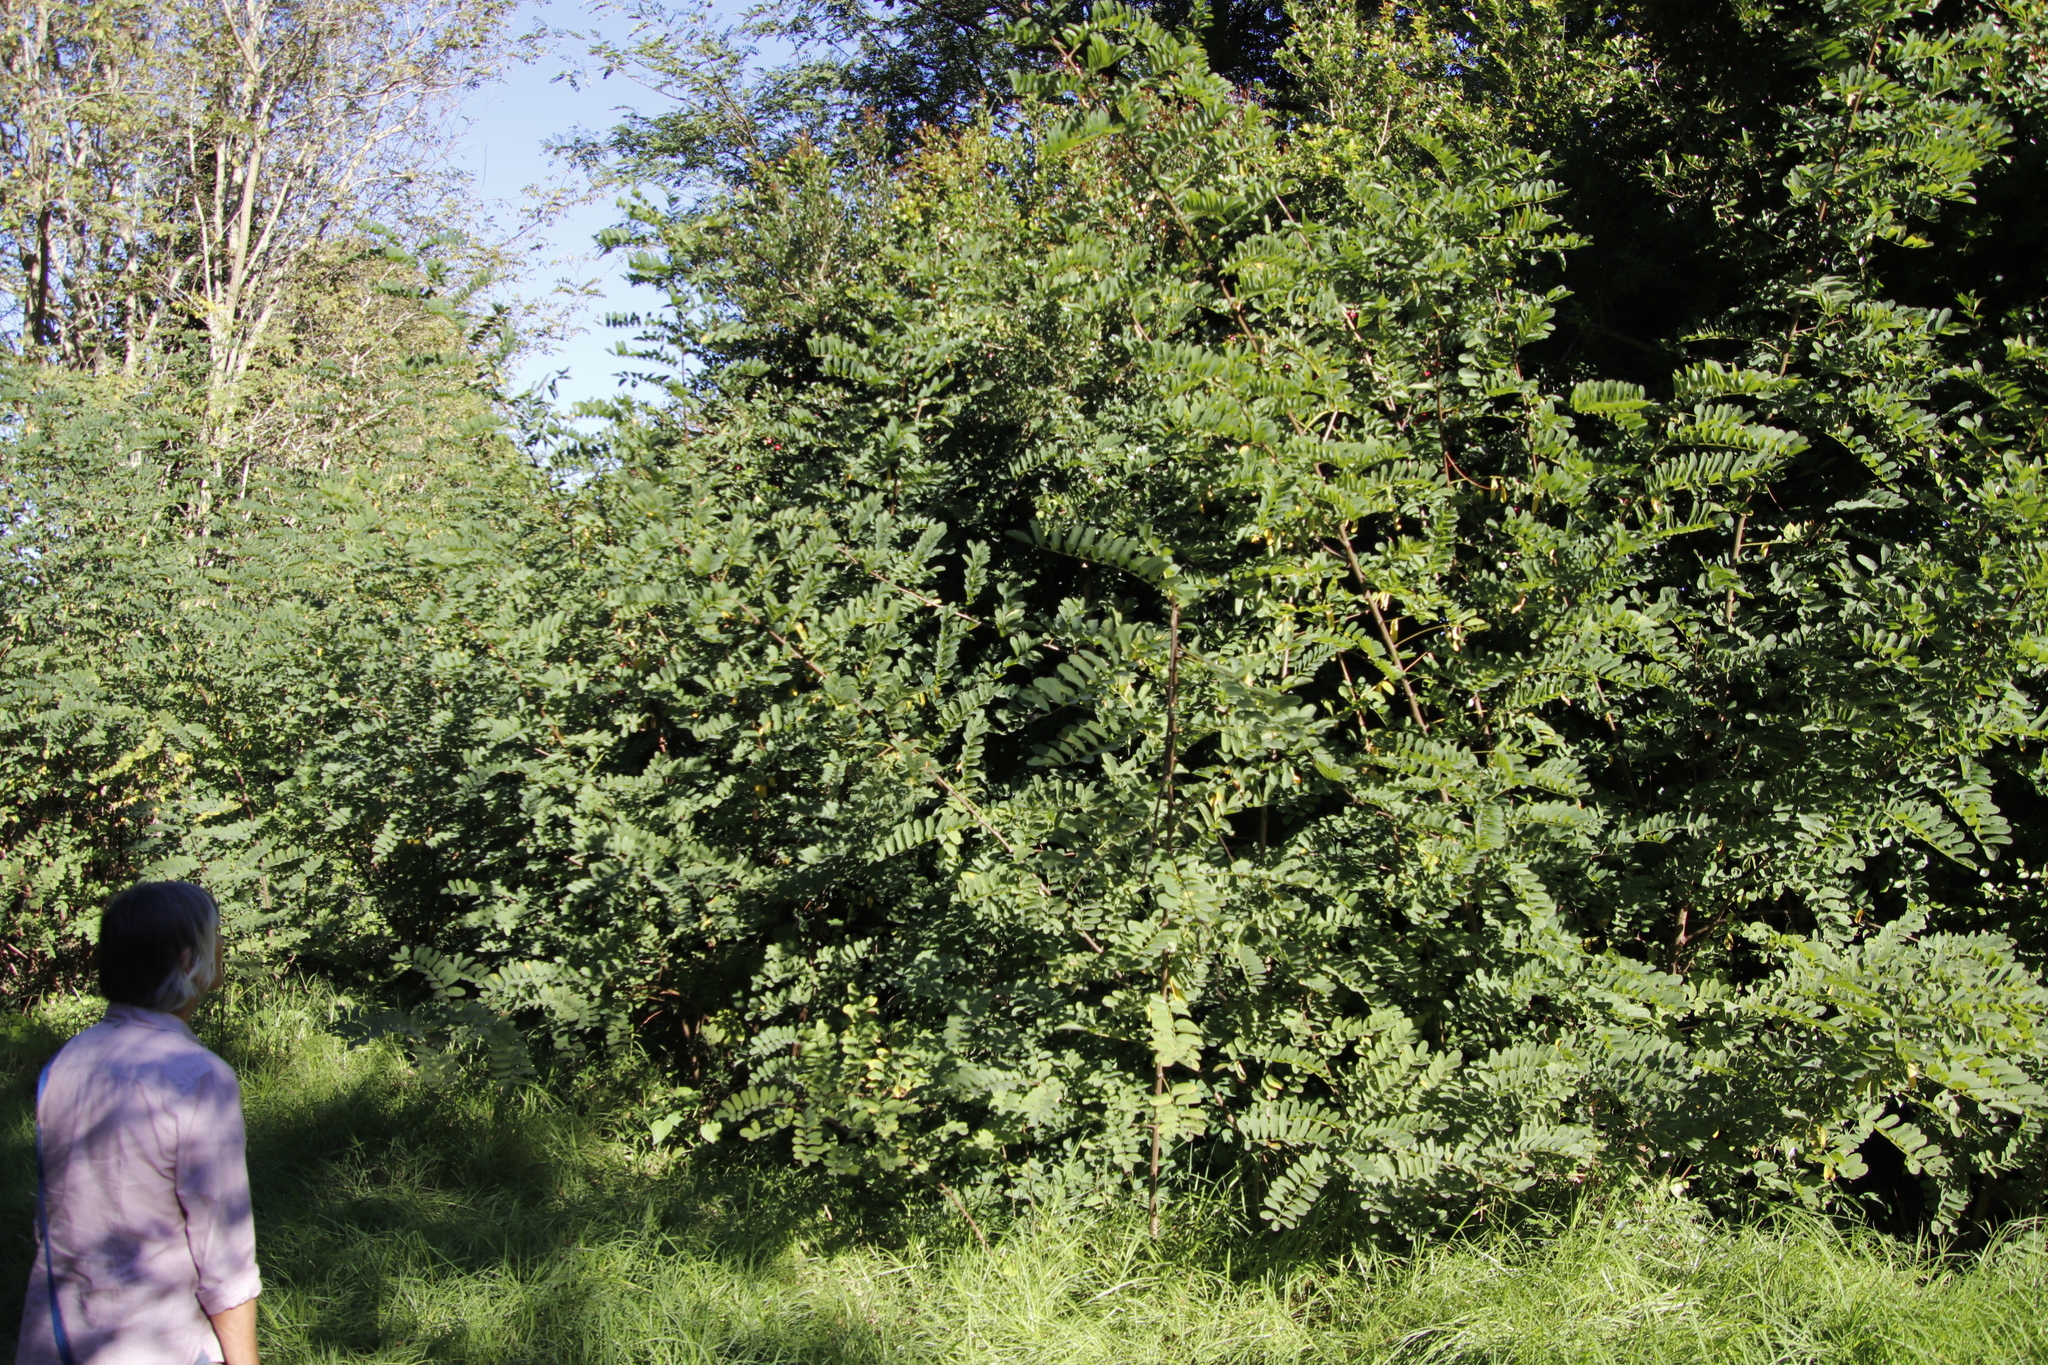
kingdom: Plantae
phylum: Tracheophyta
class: Magnoliopsida
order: Fabales
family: Fabaceae
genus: Robinia
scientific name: Robinia pseudoacacia
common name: Black locust
